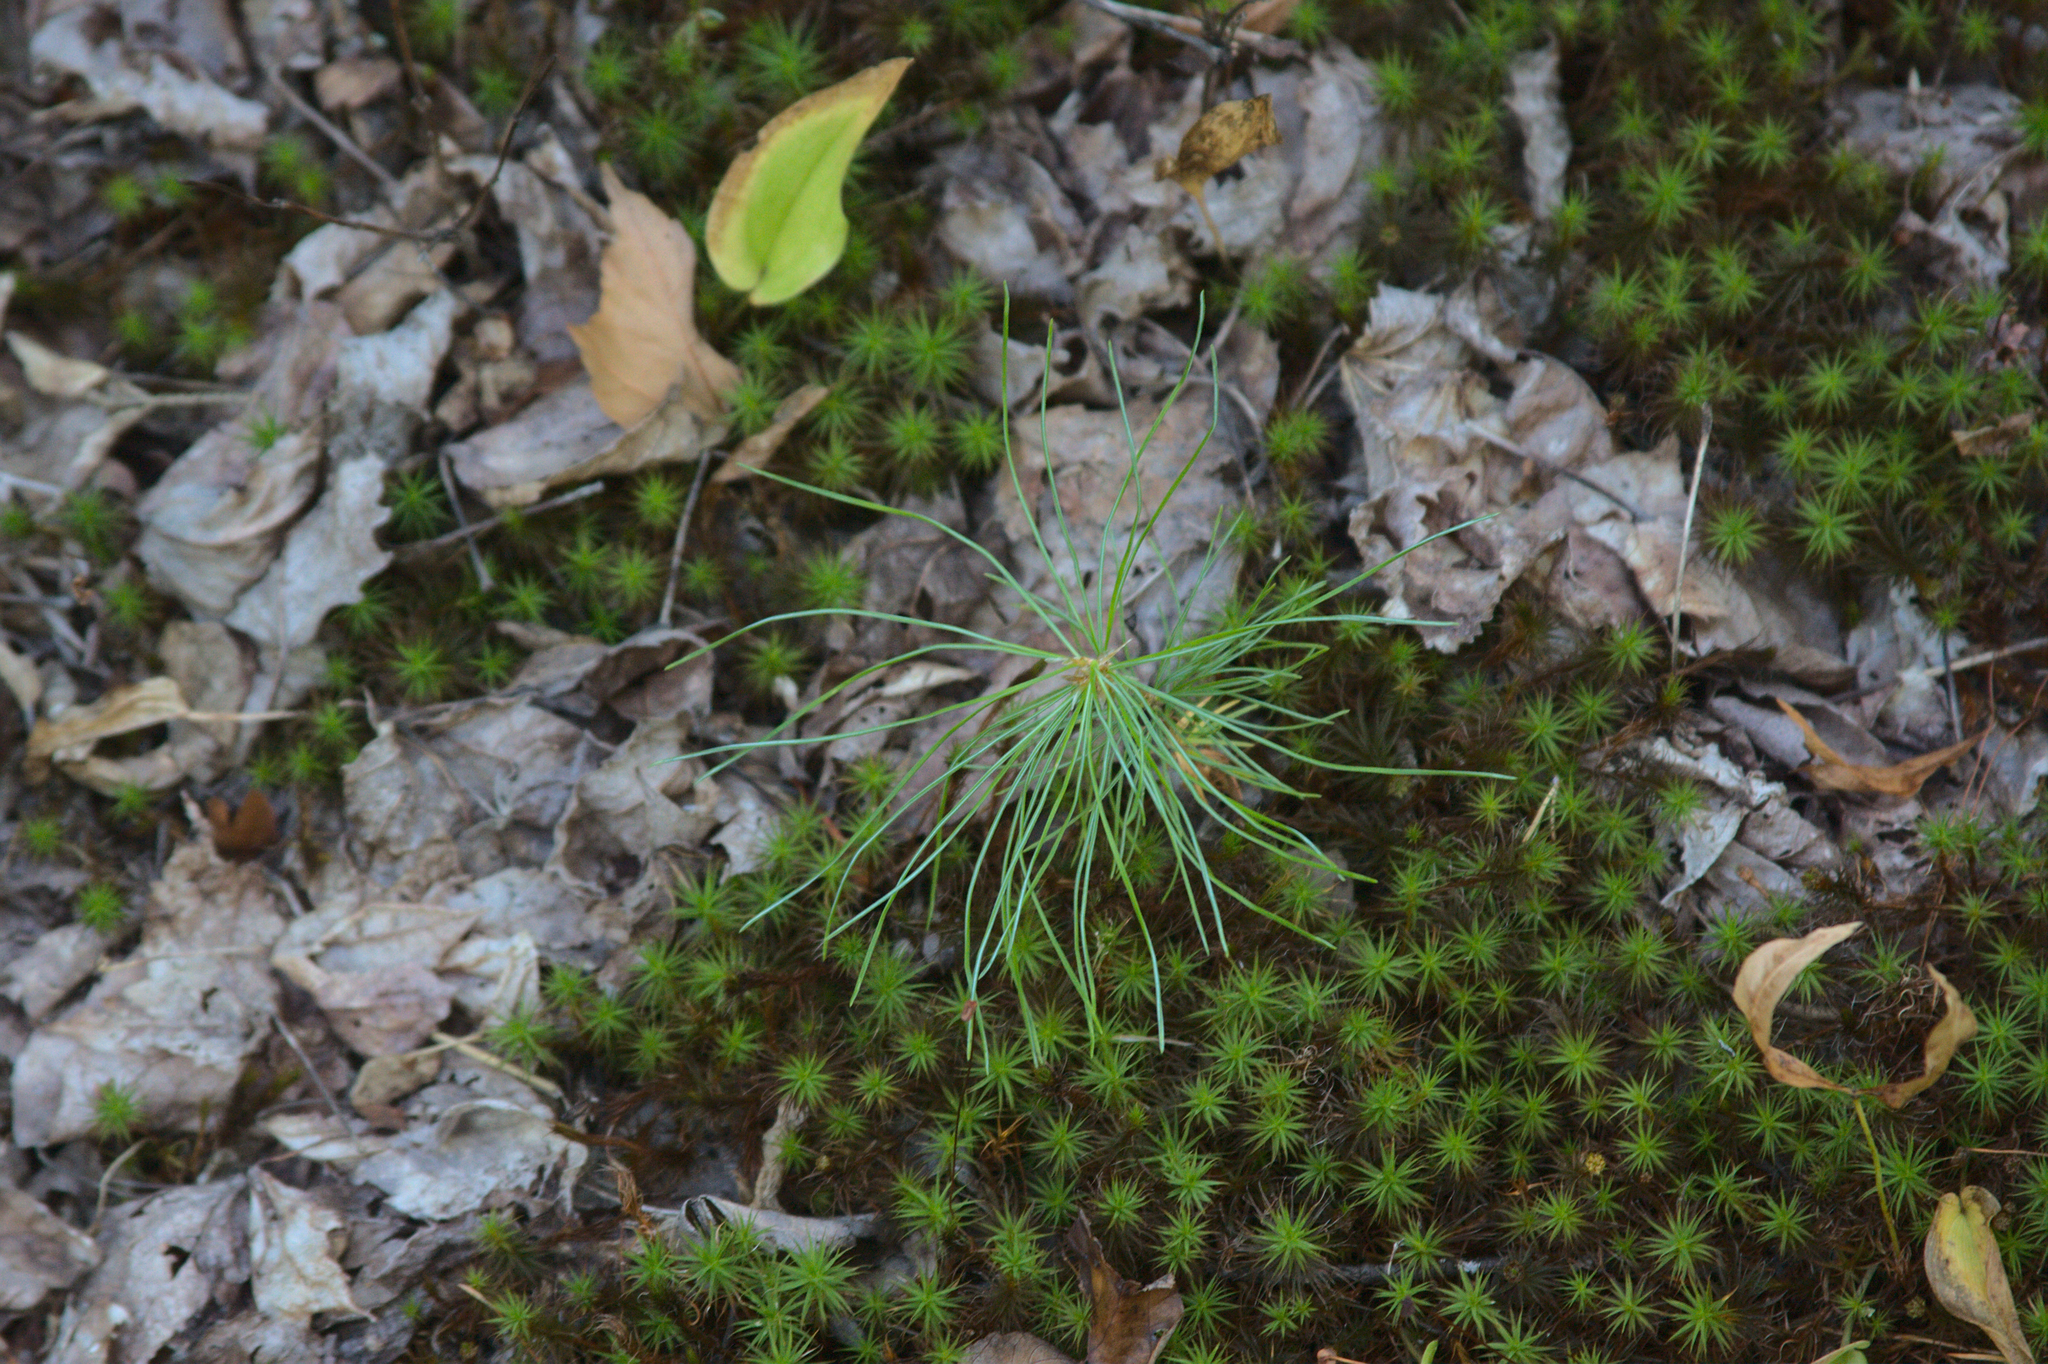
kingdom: Plantae
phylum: Tracheophyta
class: Pinopsida
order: Pinales
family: Pinaceae
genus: Pinus
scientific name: Pinus strobus
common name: Weymouth pine
